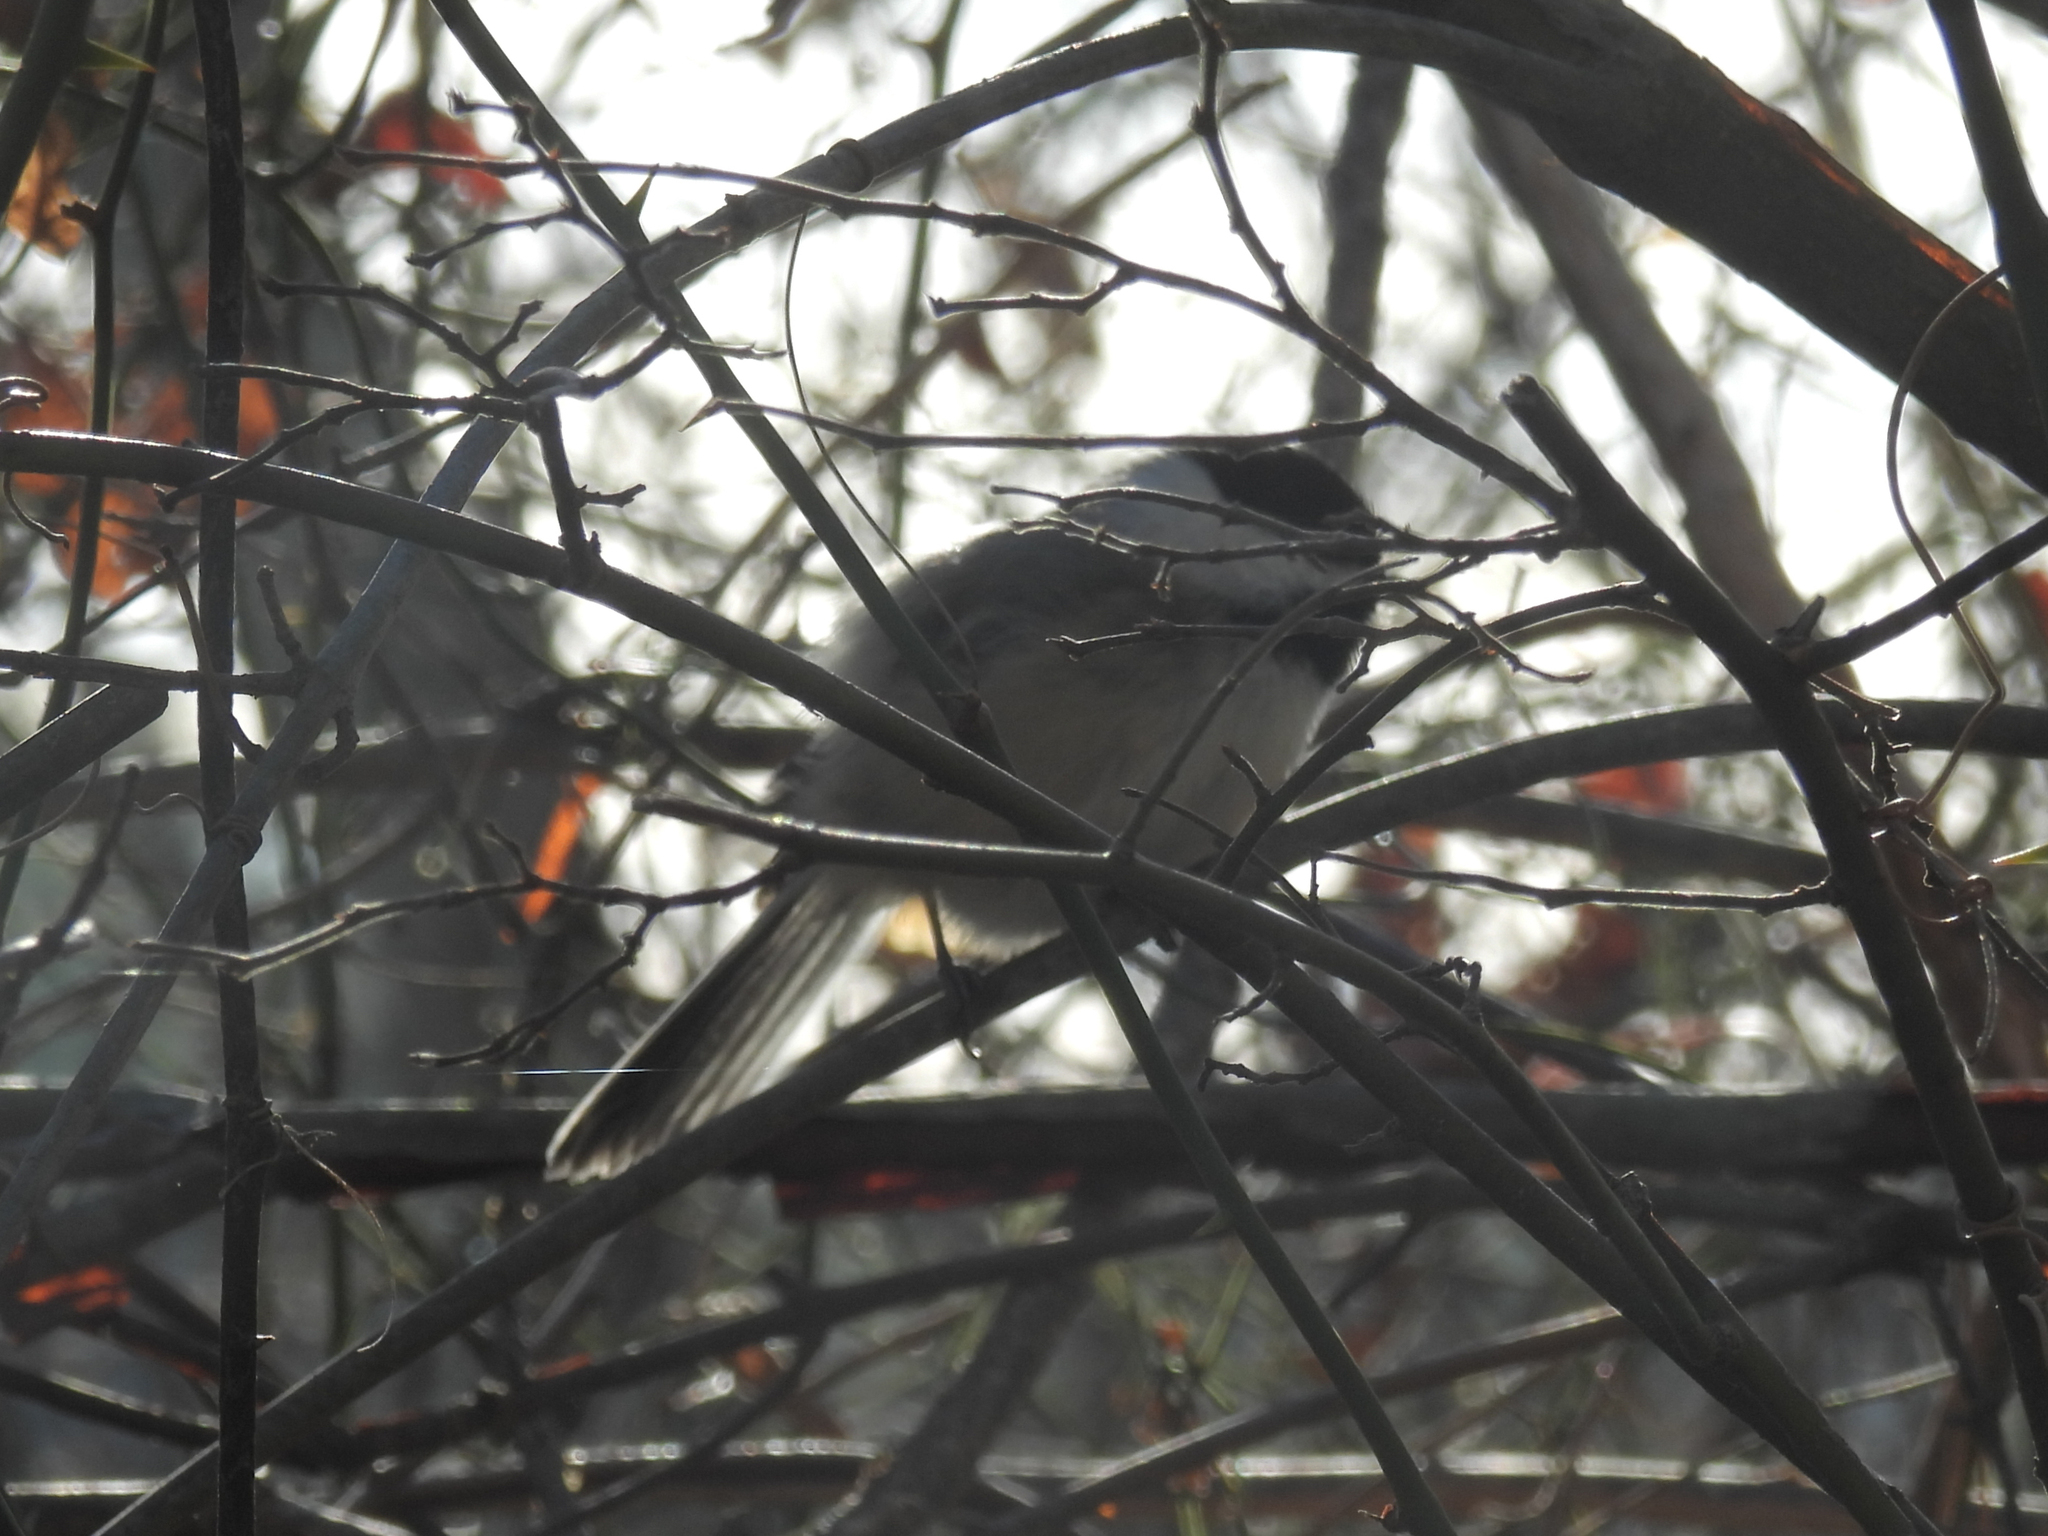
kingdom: Animalia
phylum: Chordata
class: Aves
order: Passeriformes
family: Paridae
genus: Poecile
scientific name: Poecile atricapillus
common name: Black-capped chickadee
